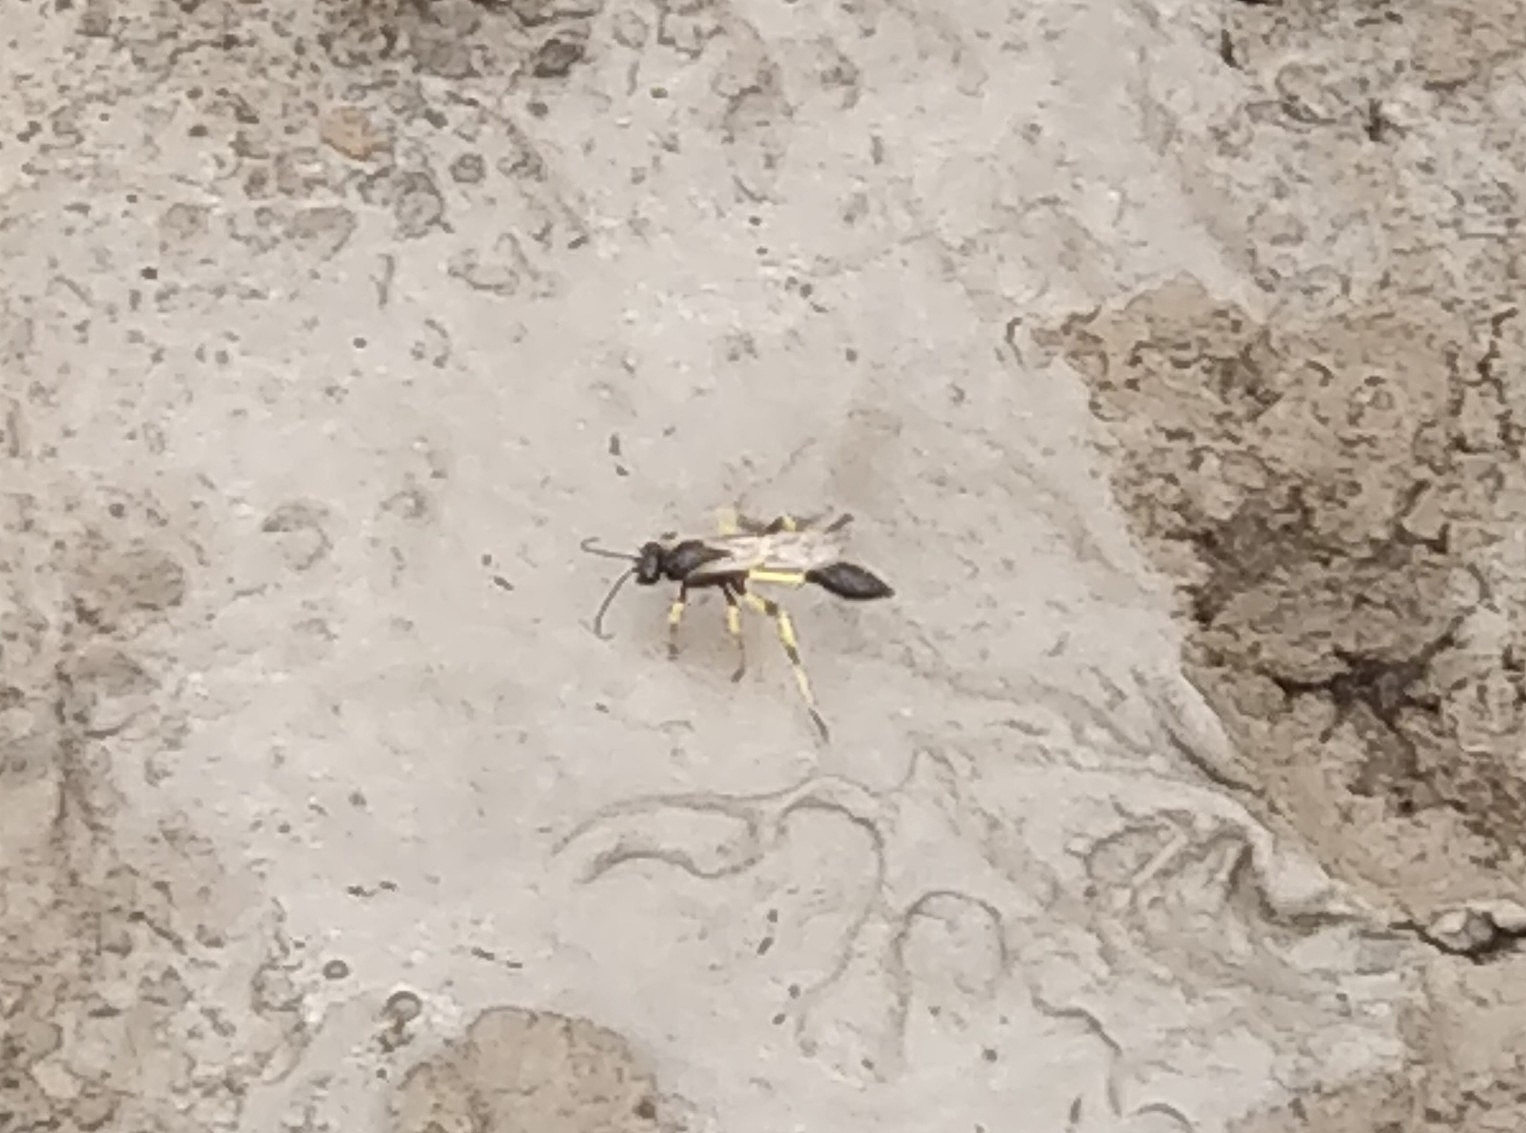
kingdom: Animalia
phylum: Arthropoda
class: Insecta
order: Hymenoptera
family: Sphecidae
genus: Sceliphron
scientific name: Sceliphron spirifex
